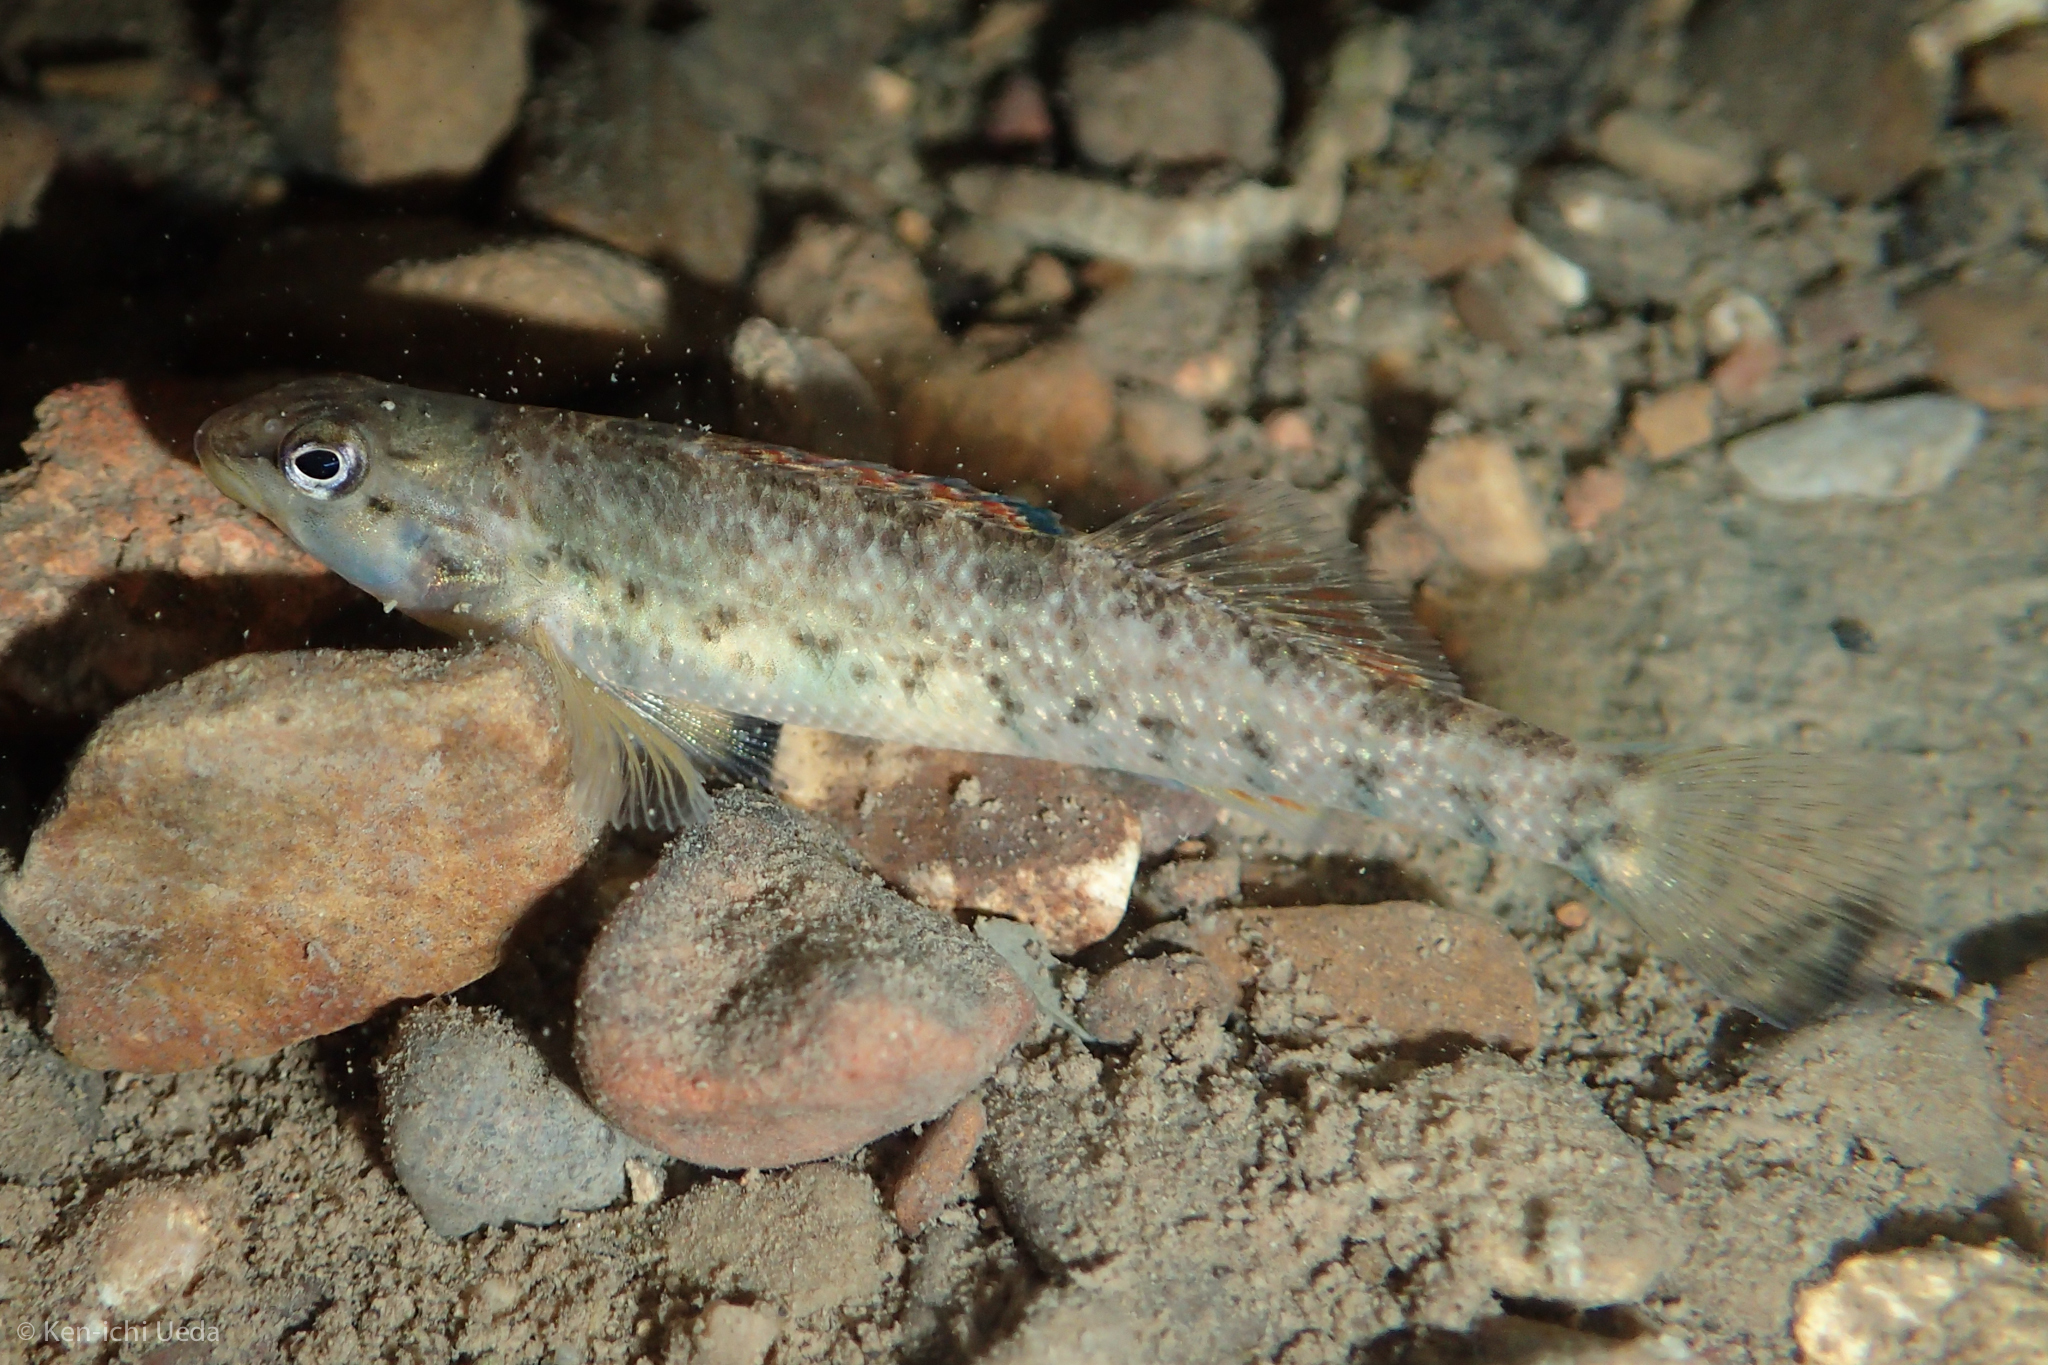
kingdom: Animalia
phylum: Chordata
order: Perciformes
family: Percidae
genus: Etheostoma
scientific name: Etheostoma caeruleum
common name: Rainbow darter
